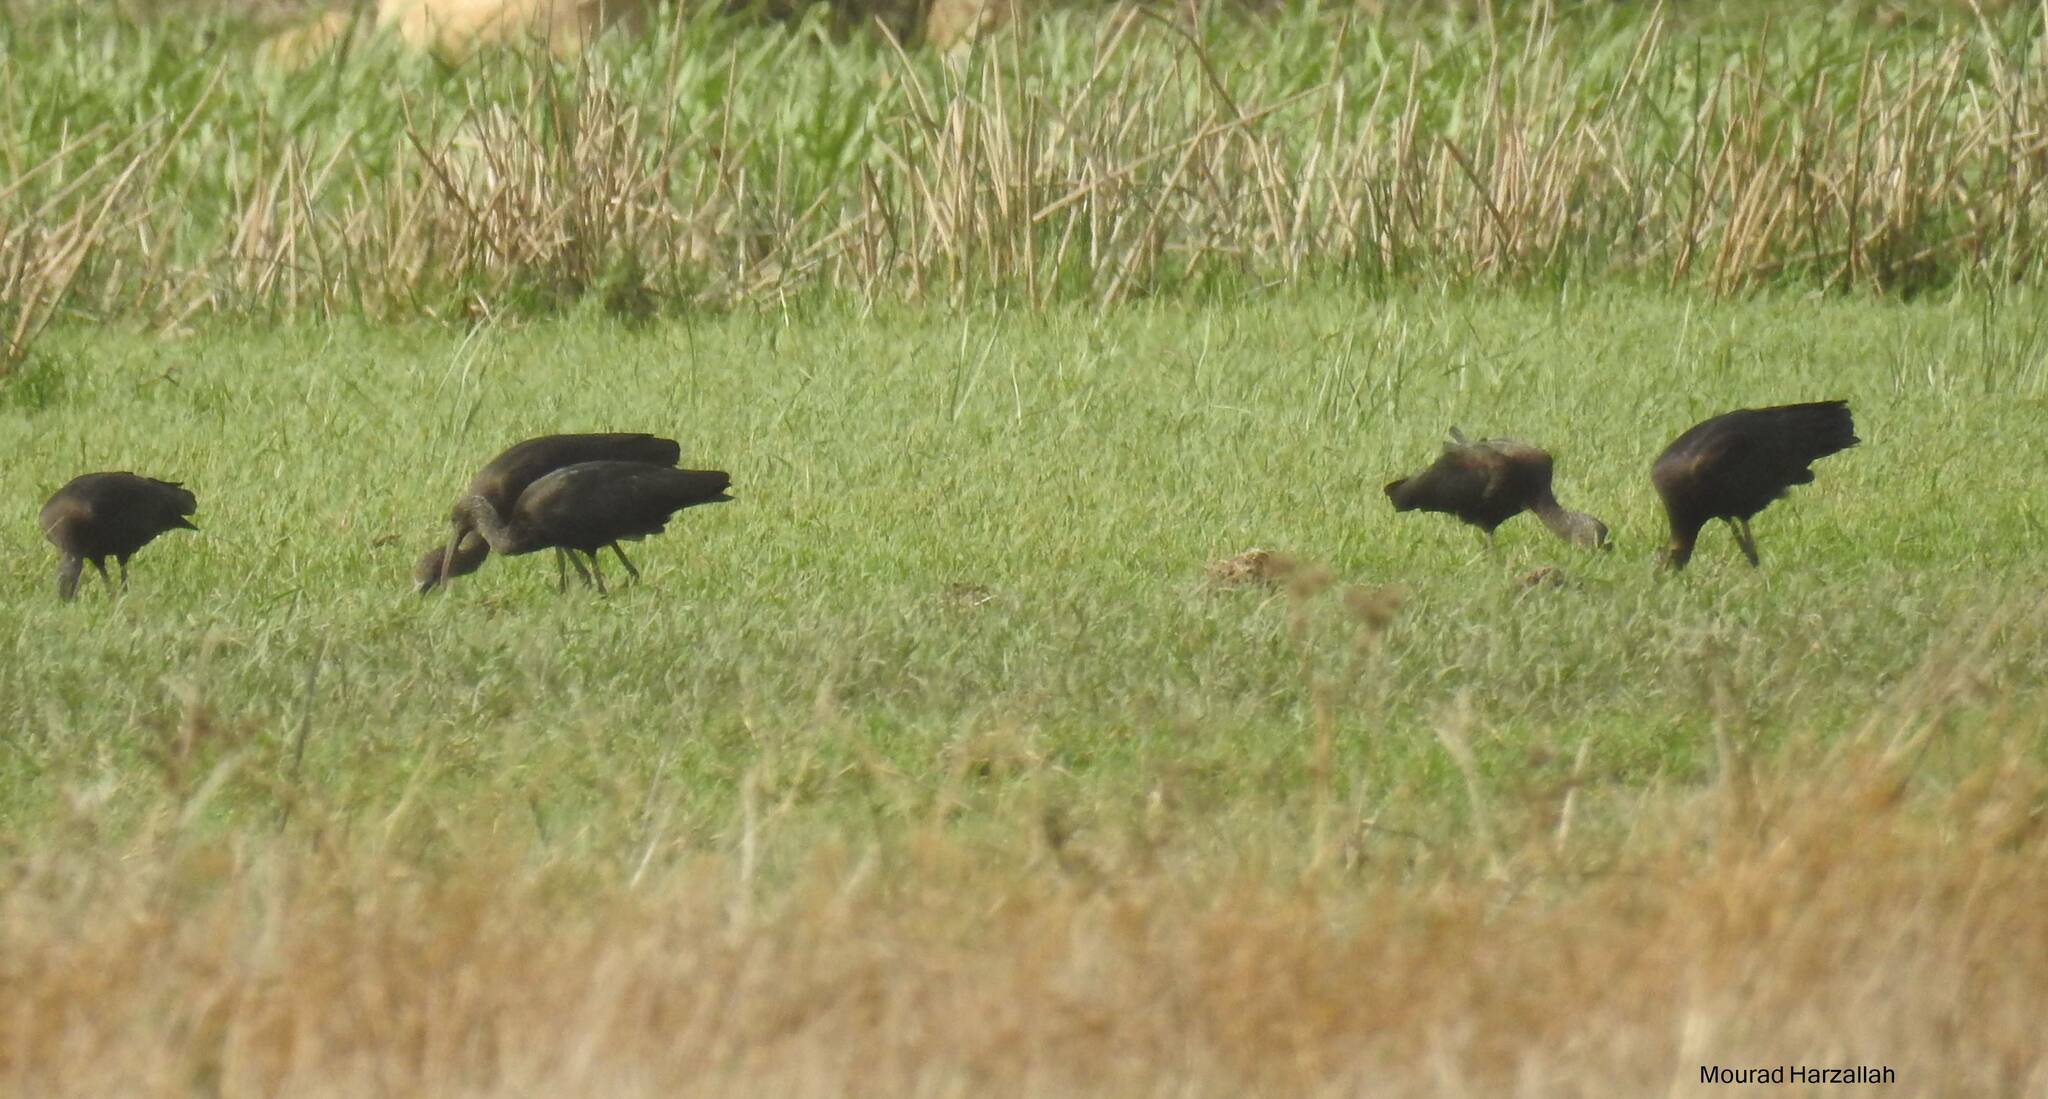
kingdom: Animalia
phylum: Chordata
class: Aves
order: Pelecaniformes
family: Threskiornithidae
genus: Plegadis
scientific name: Plegadis falcinellus
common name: Glossy ibis
